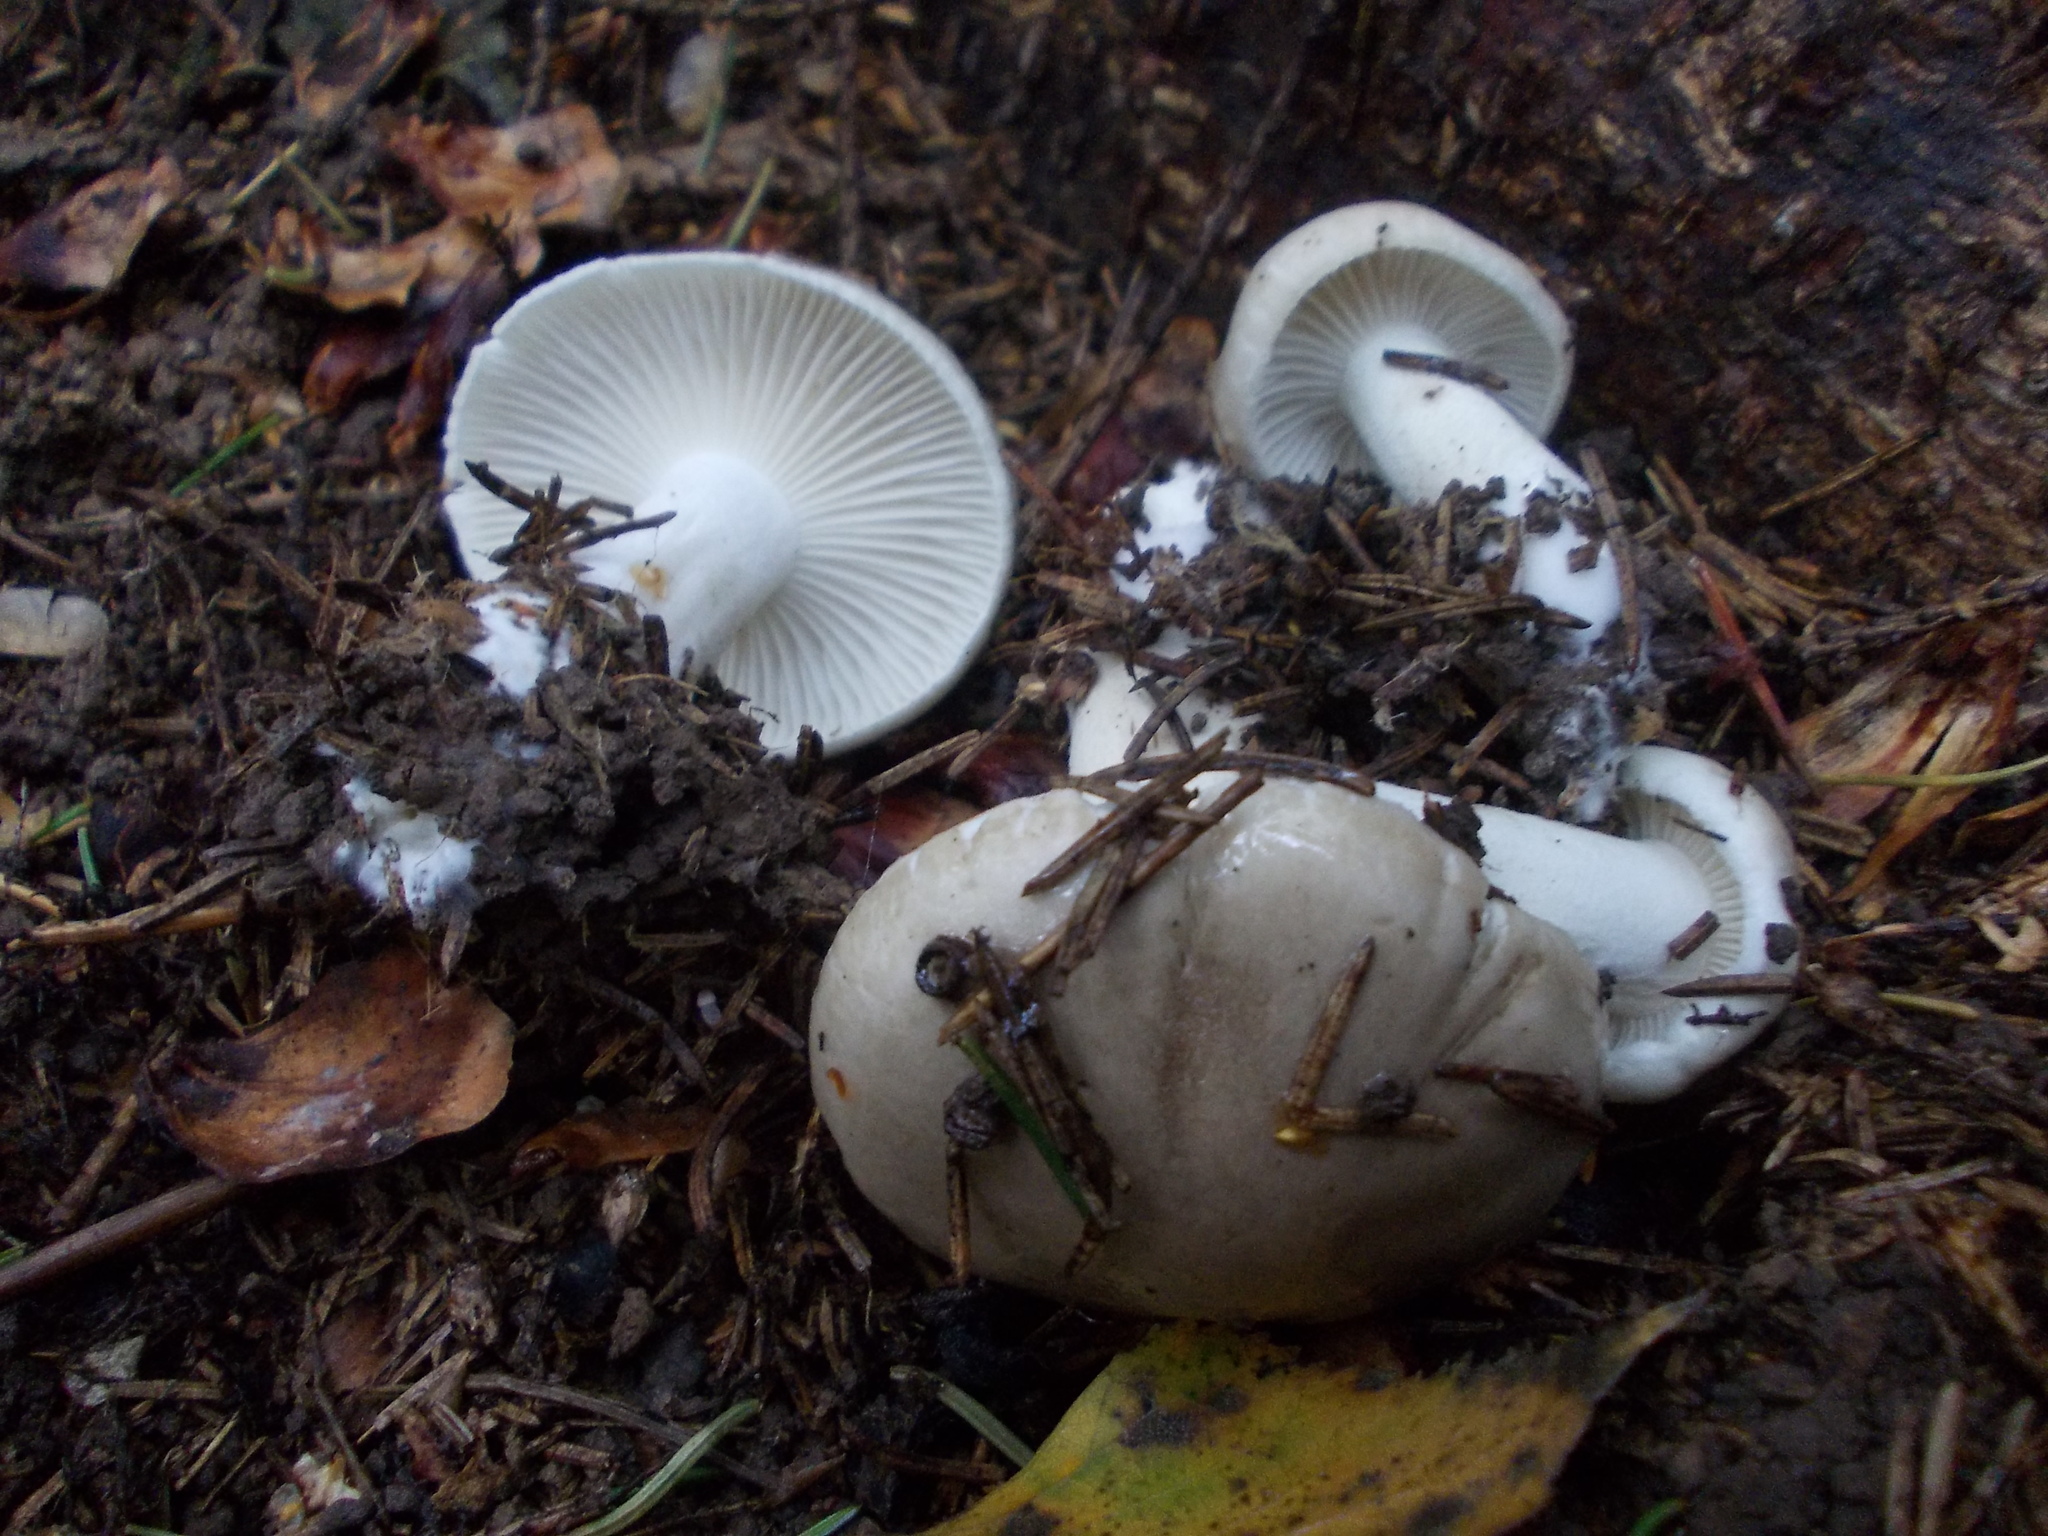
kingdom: Fungi
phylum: Basidiomycota
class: Agaricomycetes
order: Agaricales
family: Hygrophoraceae
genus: Hygrophorus
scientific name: Hygrophorus agathosmus
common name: Almond woodwax
